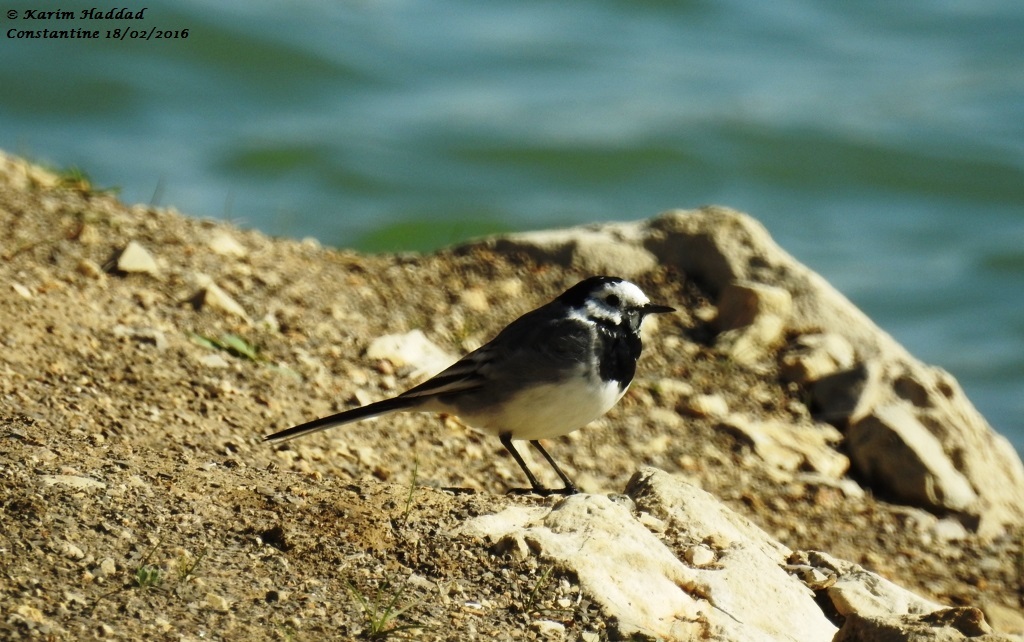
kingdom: Animalia
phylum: Chordata
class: Aves
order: Passeriformes
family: Motacillidae
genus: Motacilla
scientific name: Motacilla alba
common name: White wagtail
